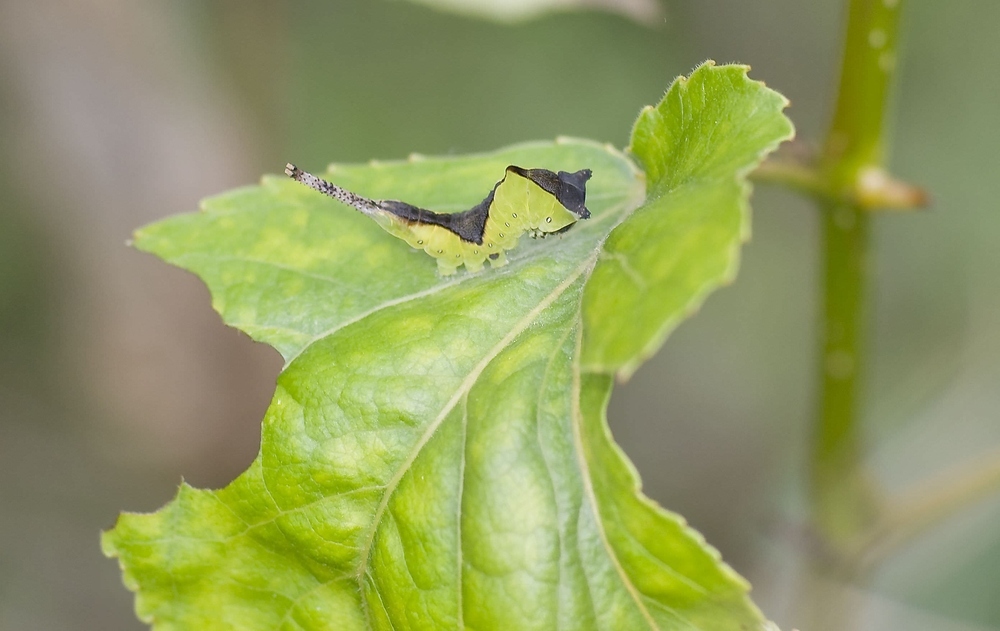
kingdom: Animalia
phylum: Arthropoda
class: Insecta
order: Lepidoptera
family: Notodontidae
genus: Cerura
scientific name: Cerura vinula
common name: Puss moth
